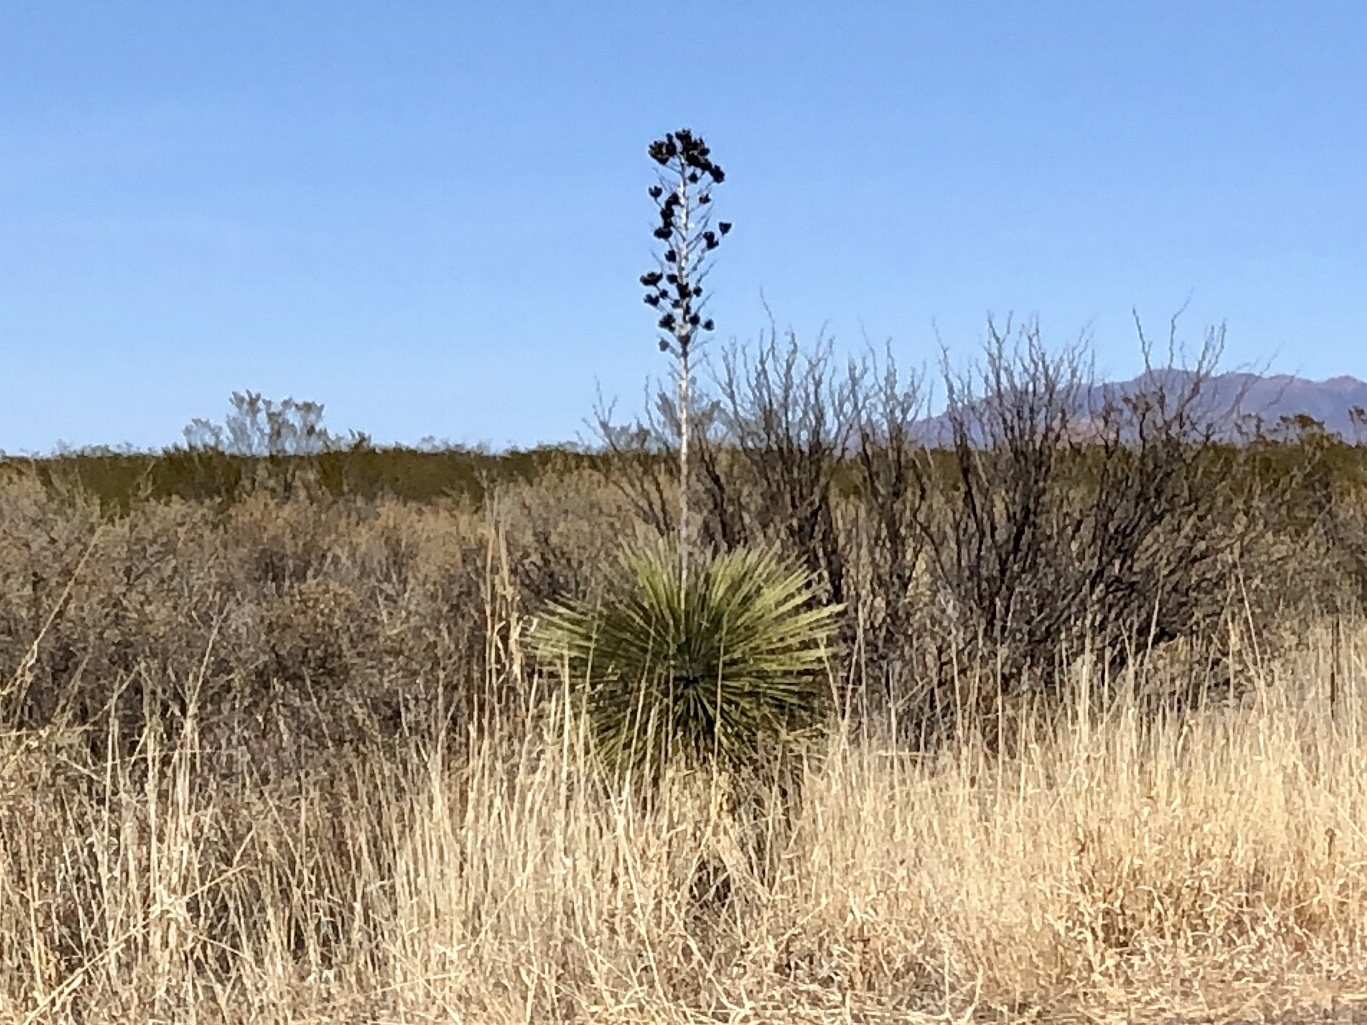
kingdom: Plantae
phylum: Tracheophyta
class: Liliopsida
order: Asparagales
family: Asparagaceae
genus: Yucca
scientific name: Yucca elata
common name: Palmella
